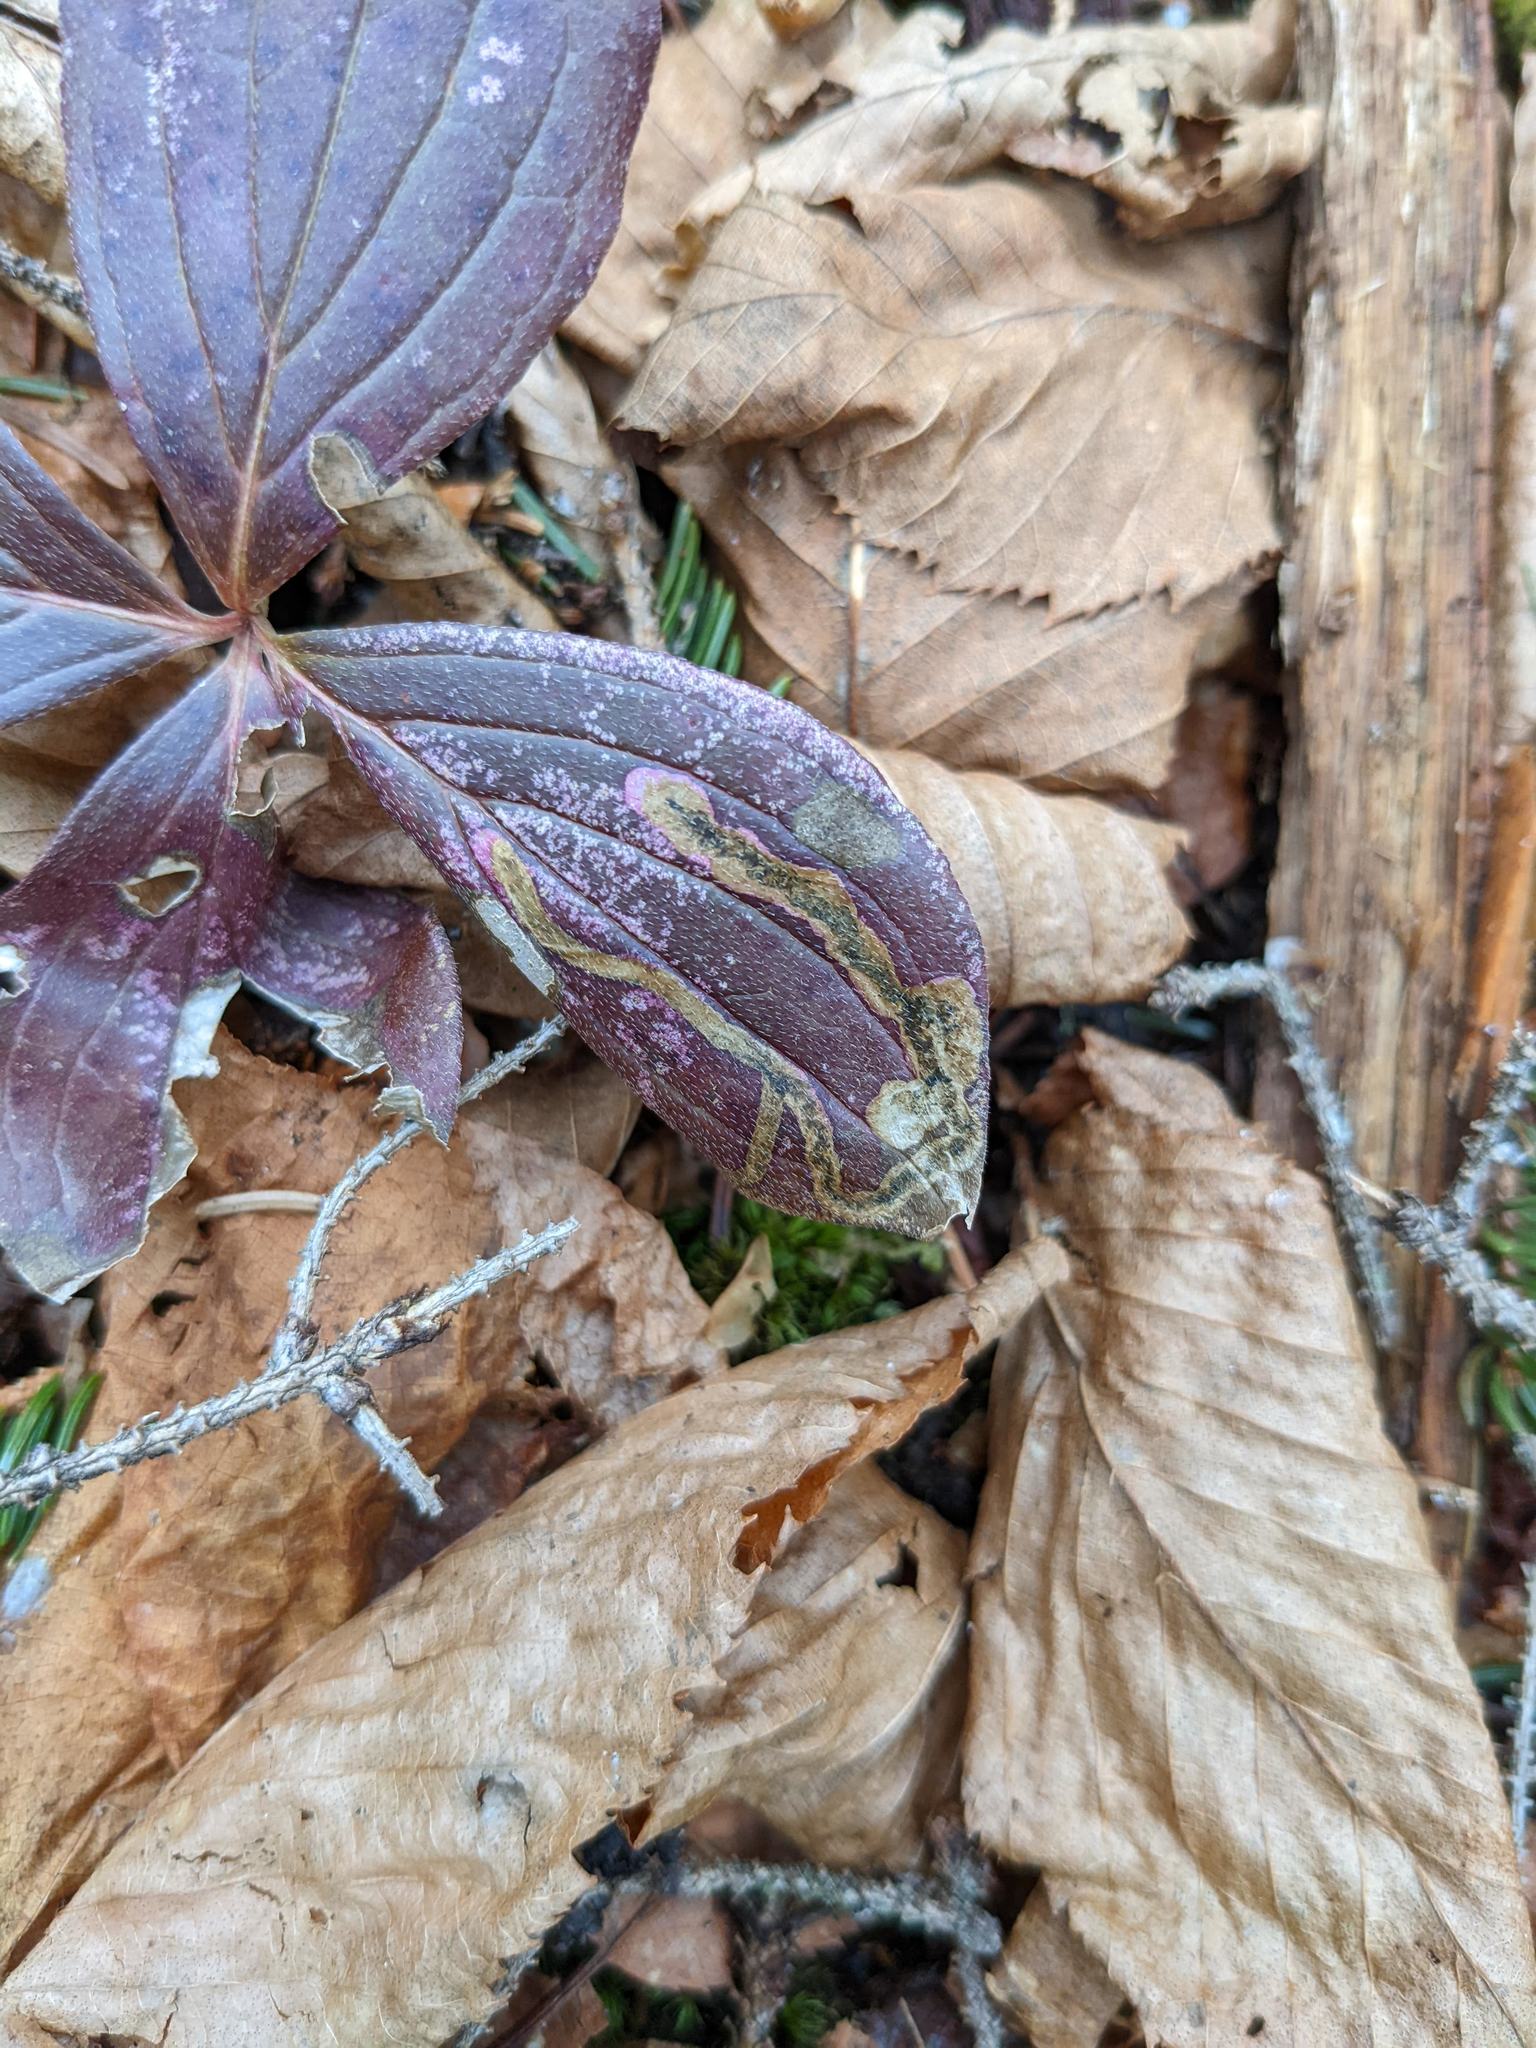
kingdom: Animalia
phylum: Arthropoda
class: Insecta
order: Diptera
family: Agromyzidae
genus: Phytomyza
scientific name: Phytomyza agromyzina
